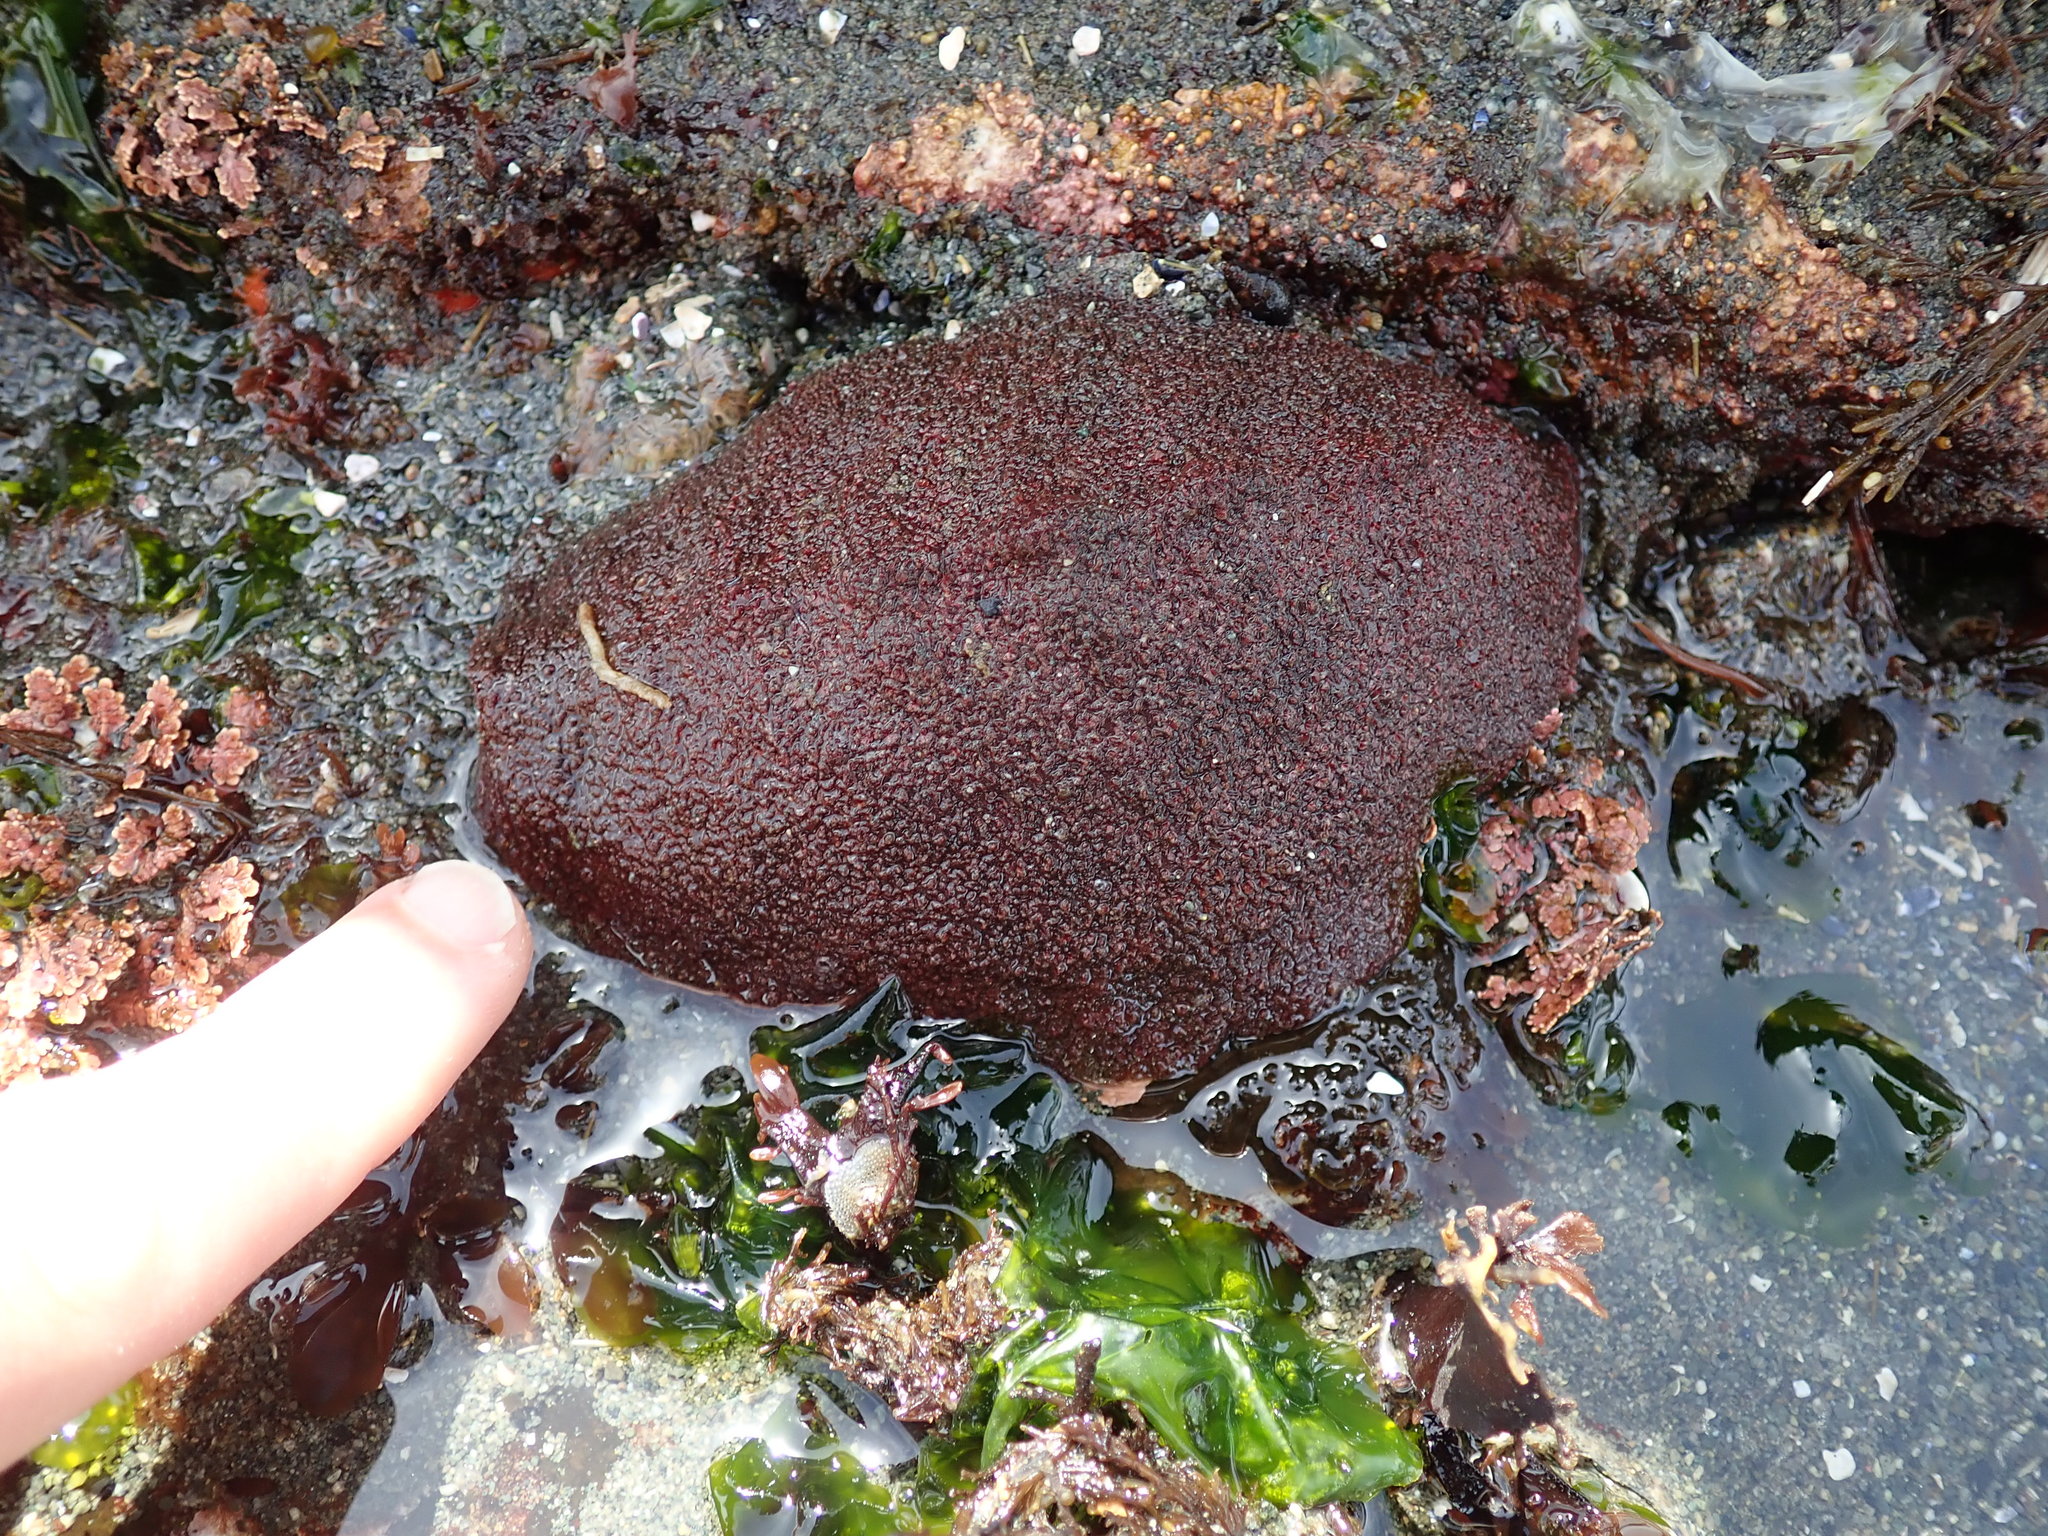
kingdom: Animalia
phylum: Mollusca
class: Polyplacophora
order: Chitonida
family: Acanthochitonidae
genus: Cryptochiton
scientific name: Cryptochiton stelleri
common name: Giant pacific chiton
